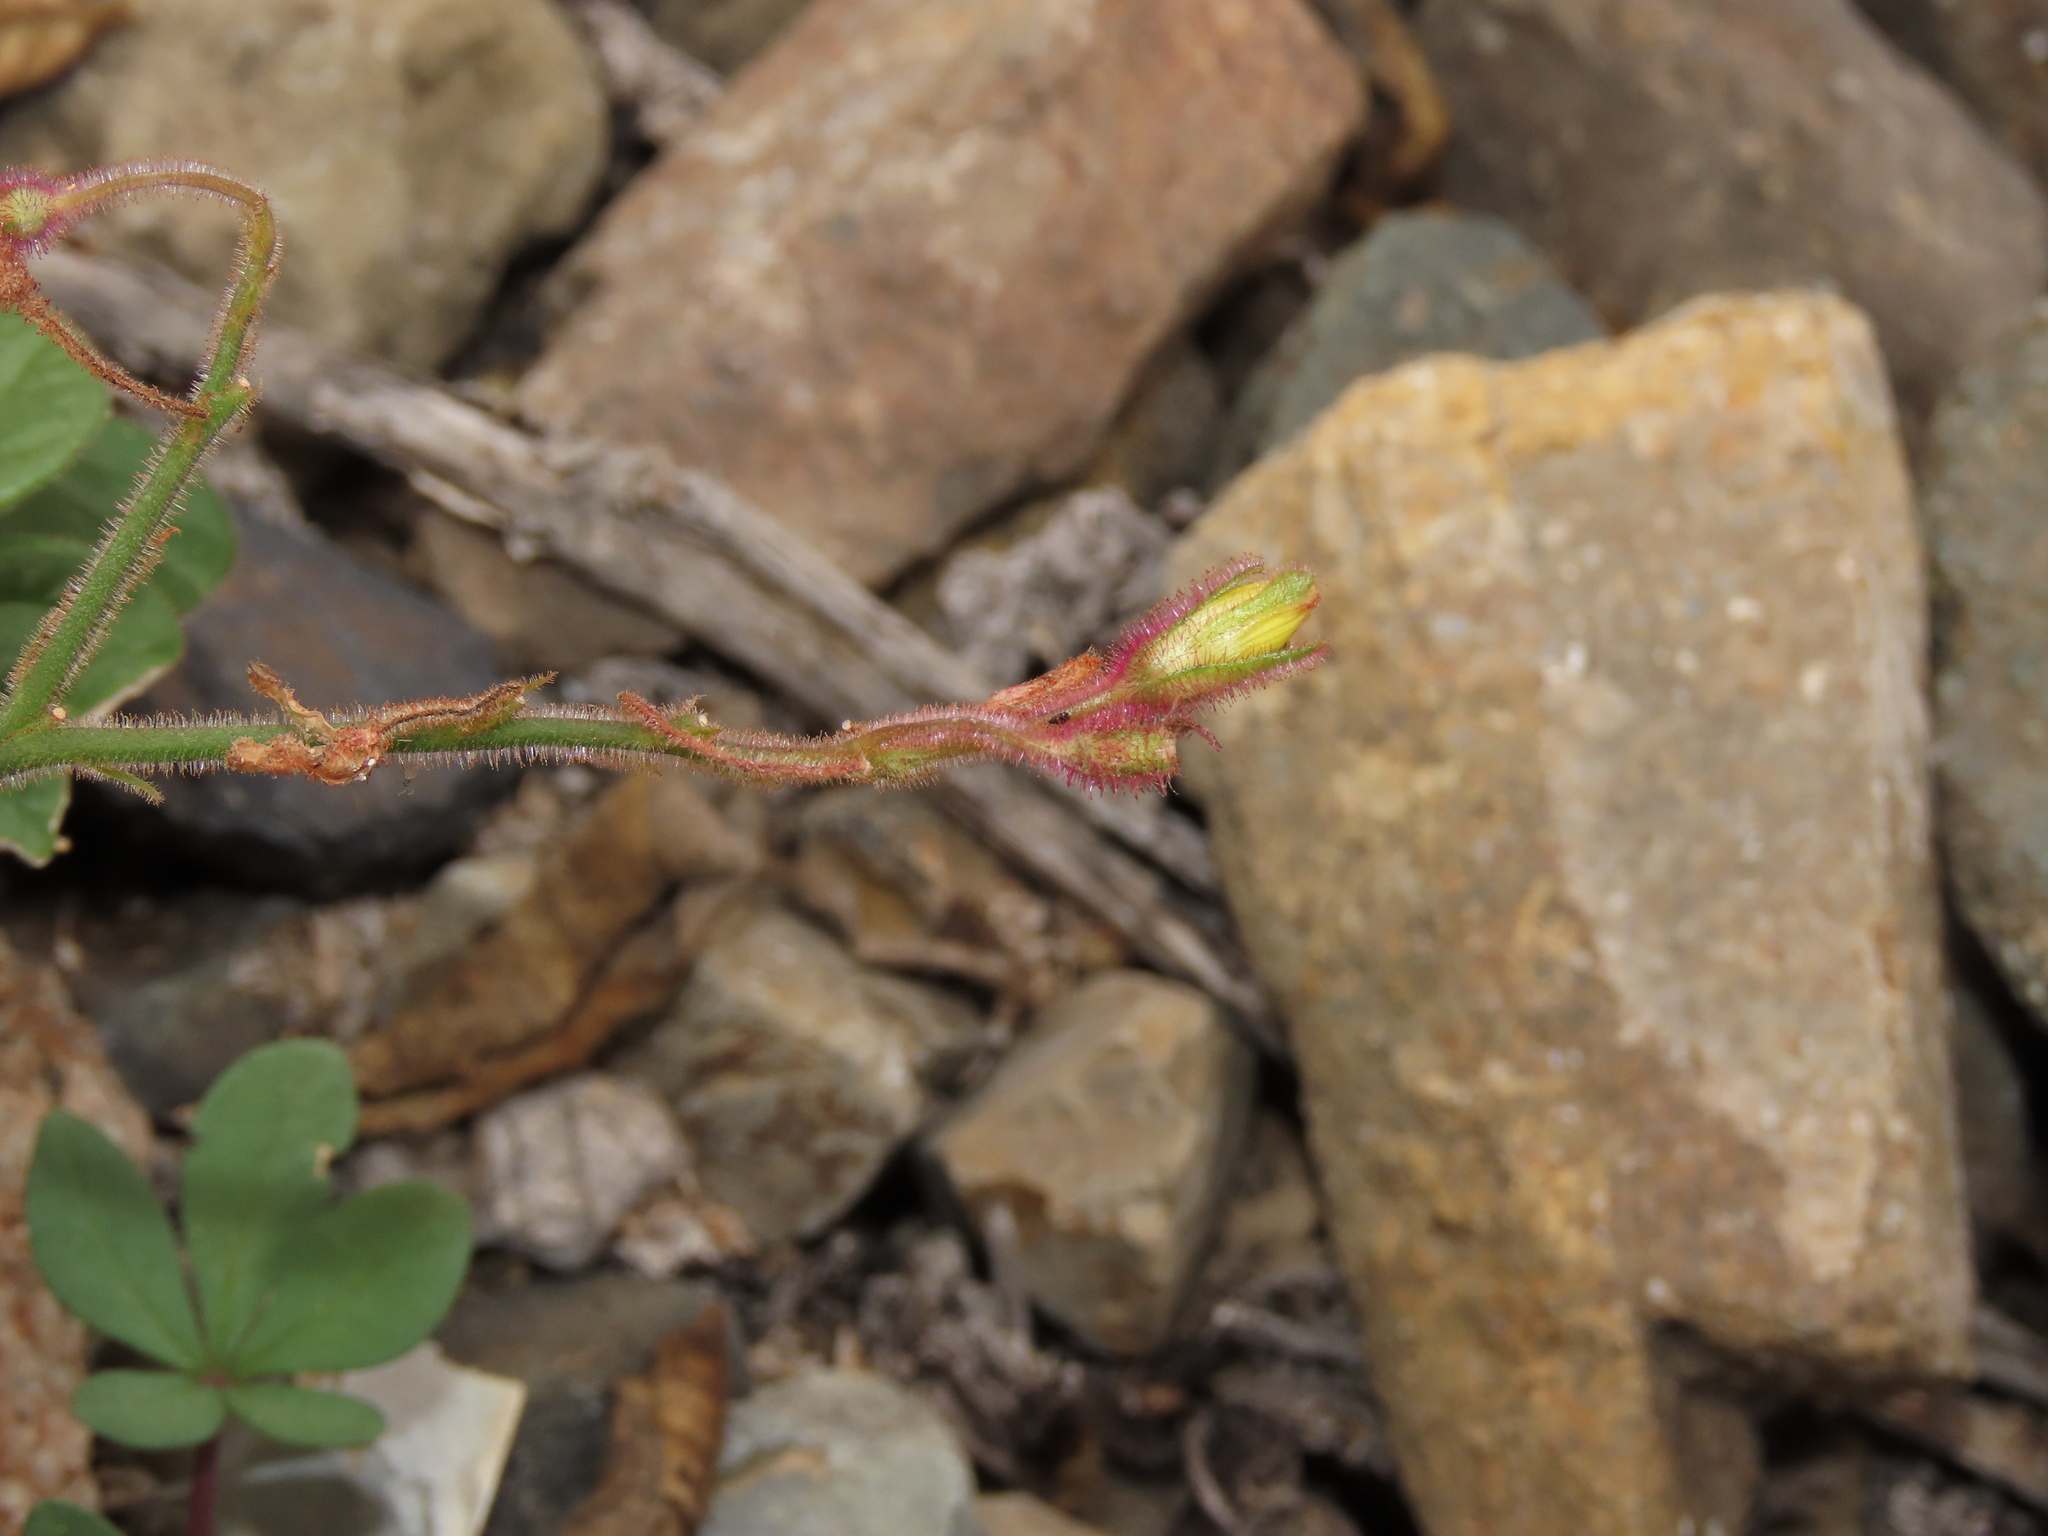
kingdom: Plantae
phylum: Tracheophyta
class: Magnoliopsida
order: Oxalidales
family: Oxalidaceae
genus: Oxalis
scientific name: Oxalis atacamensis
